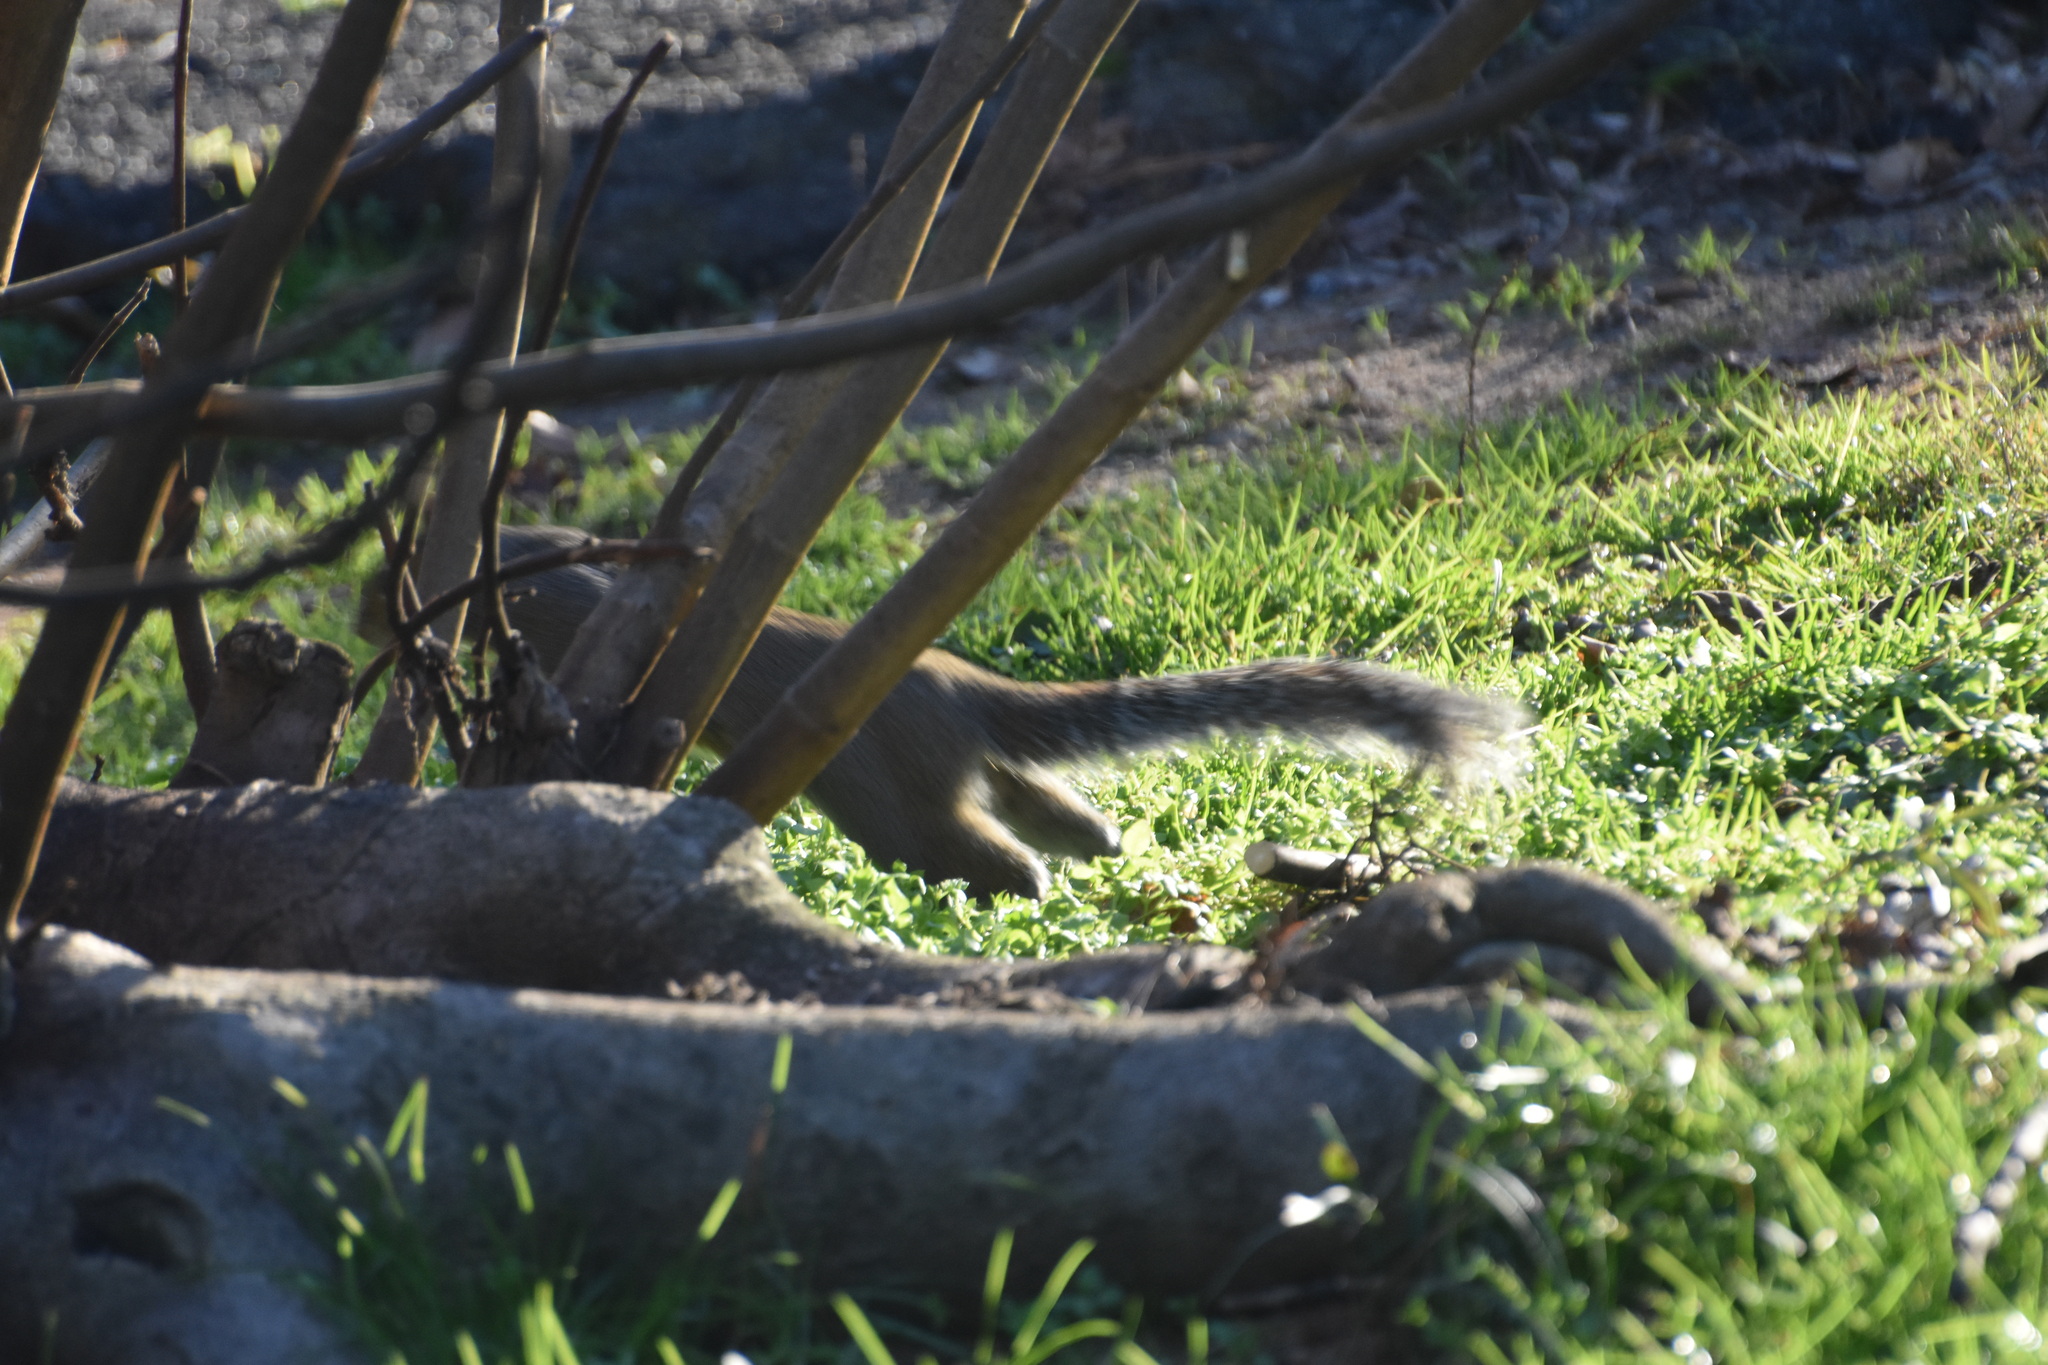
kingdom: Animalia
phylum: Chordata
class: Mammalia
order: Rodentia
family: Sciuridae
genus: Sciurus
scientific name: Sciurus carolinensis
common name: Eastern gray squirrel
